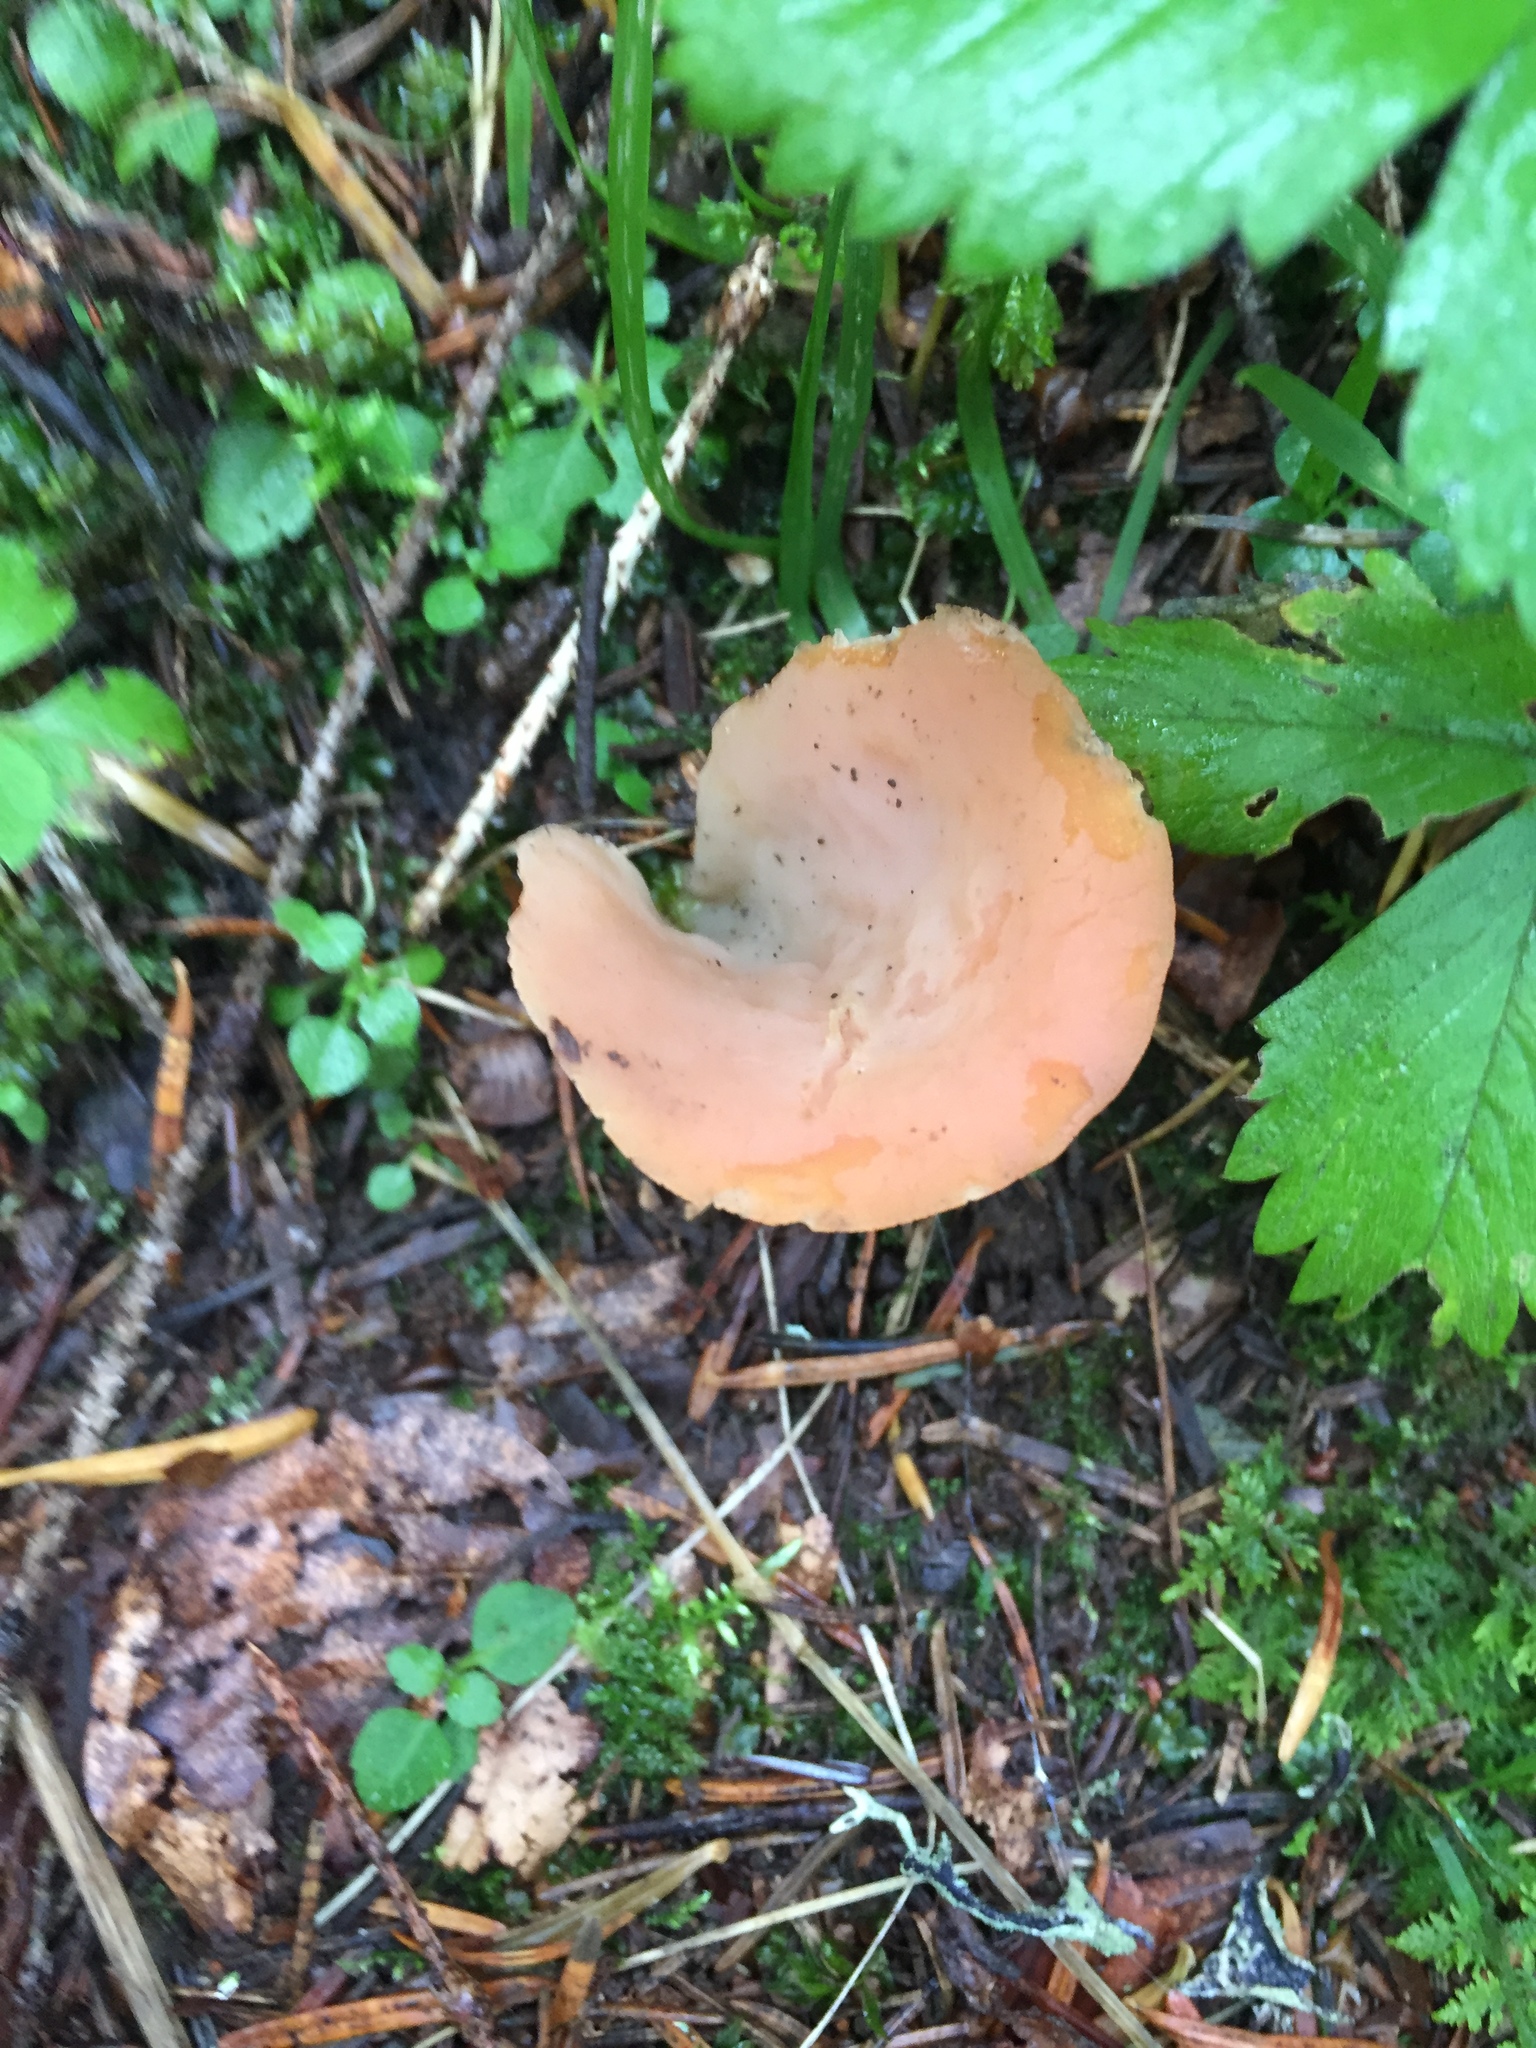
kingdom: Fungi
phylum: Basidiomycota
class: Agaricomycetes
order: Auriculariales
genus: Guepinia
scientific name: Guepinia helvelloides
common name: Salmon salad
